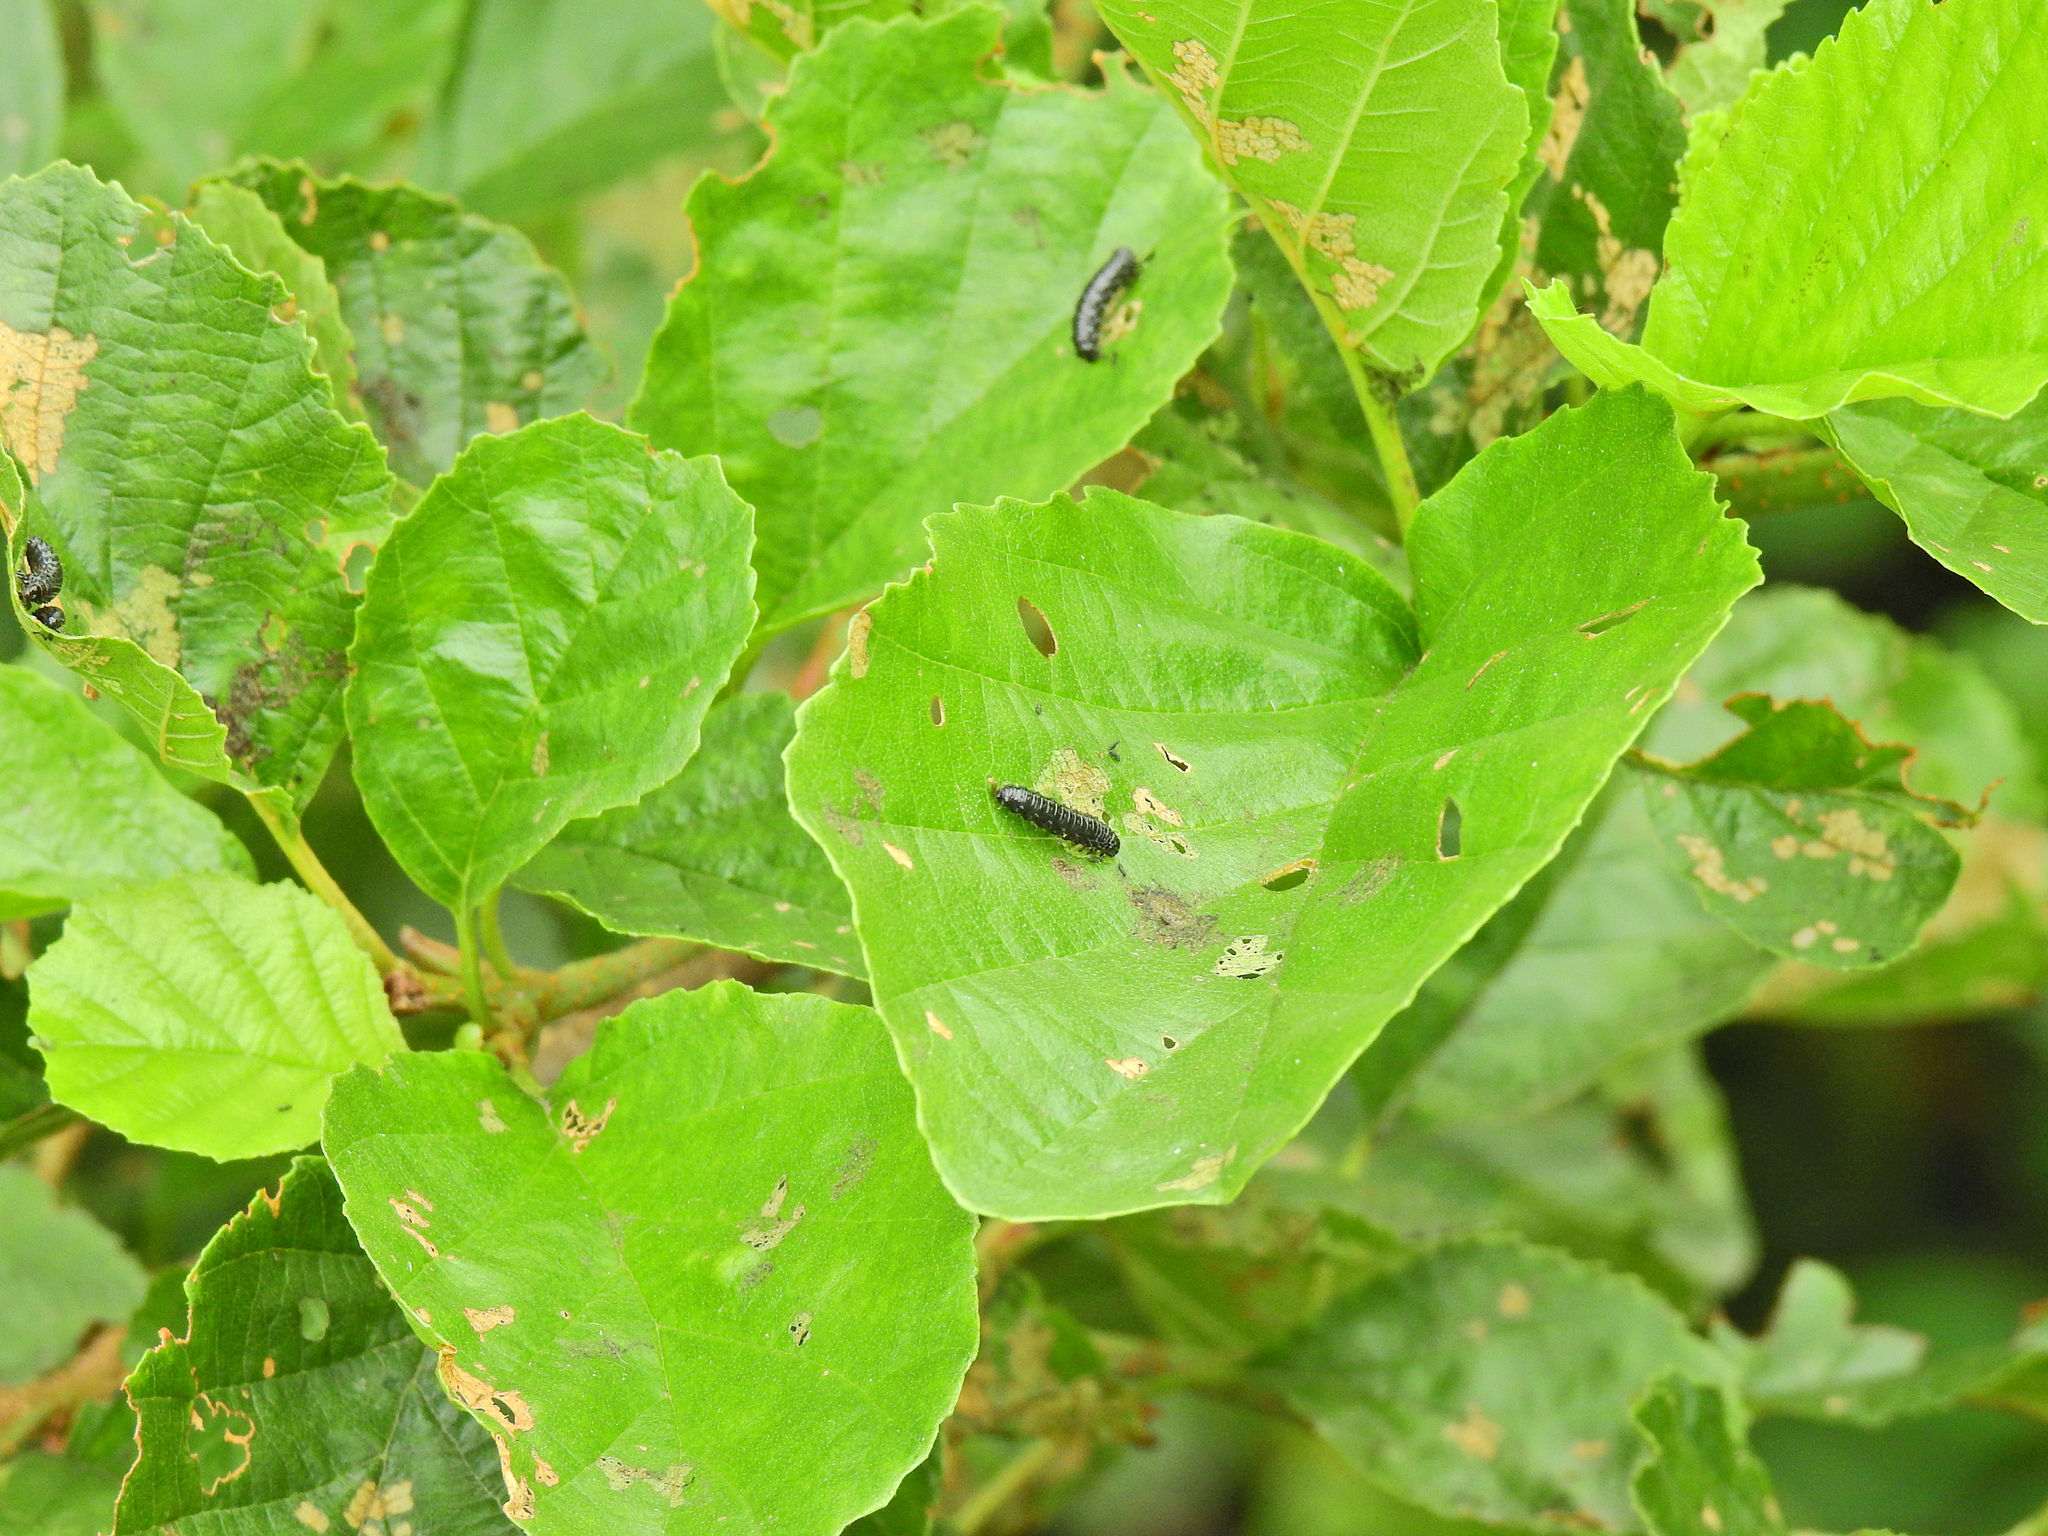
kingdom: Animalia
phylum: Arthropoda
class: Insecta
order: Coleoptera
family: Chrysomelidae
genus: Agelastica
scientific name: Agelastica alni
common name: Alder leaf beetle
